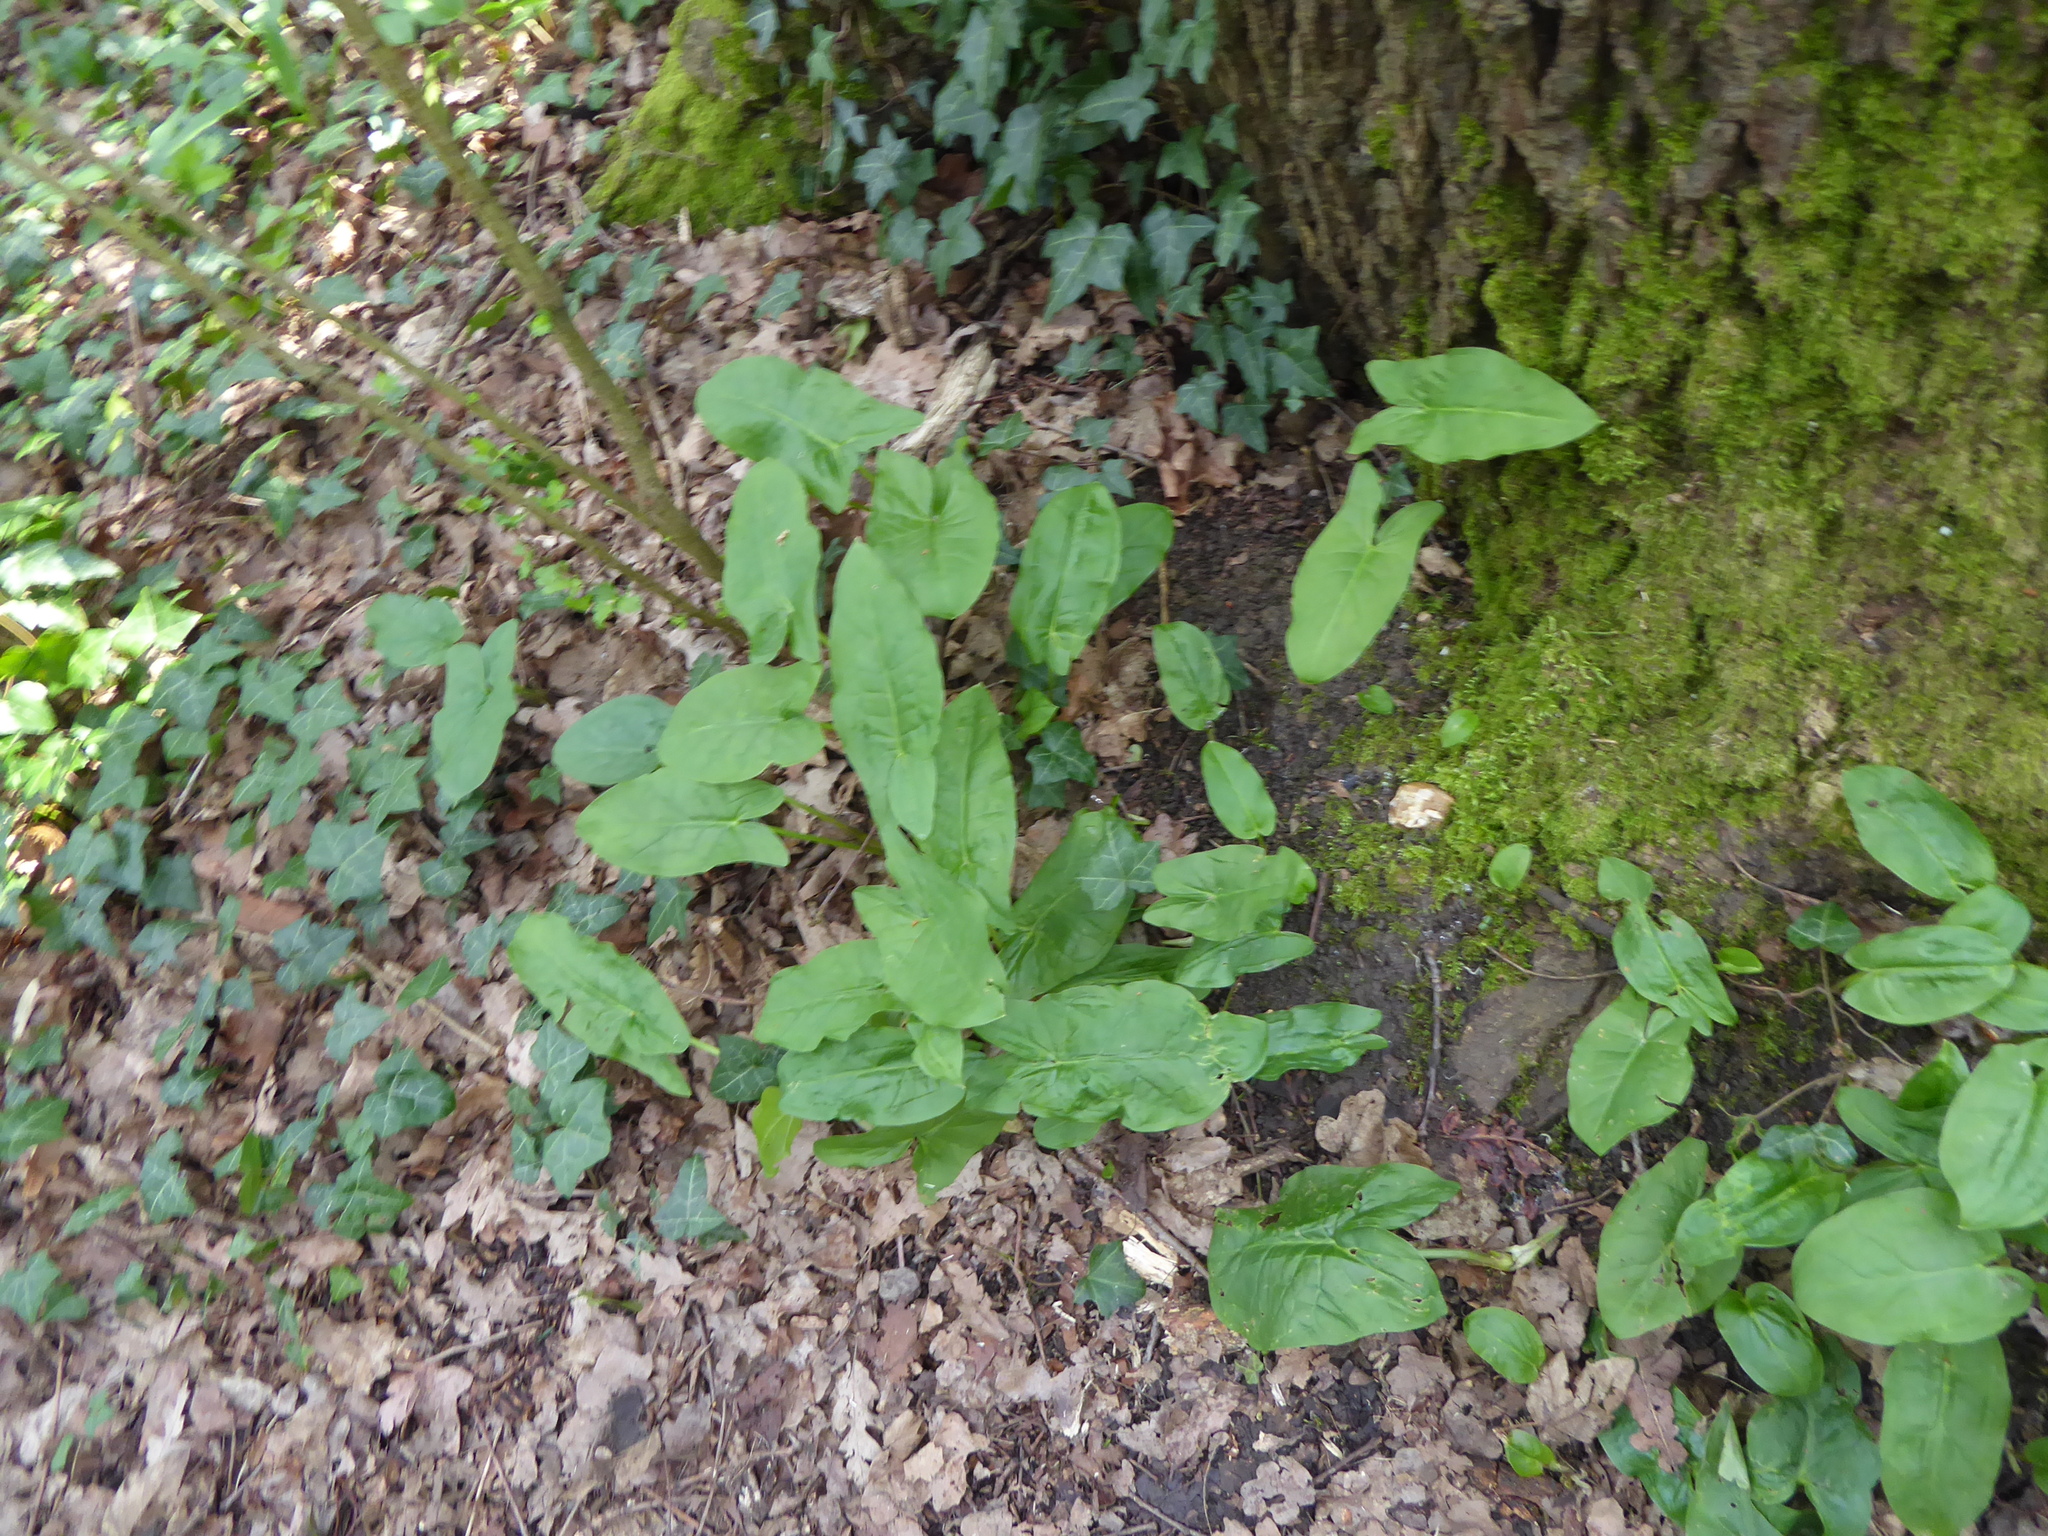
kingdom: Plantae
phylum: Tracheophyta
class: Liliopsida
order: Alismatales
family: Araceae
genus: Arum
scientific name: Arum maculatum
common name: Lords-and-ladies
